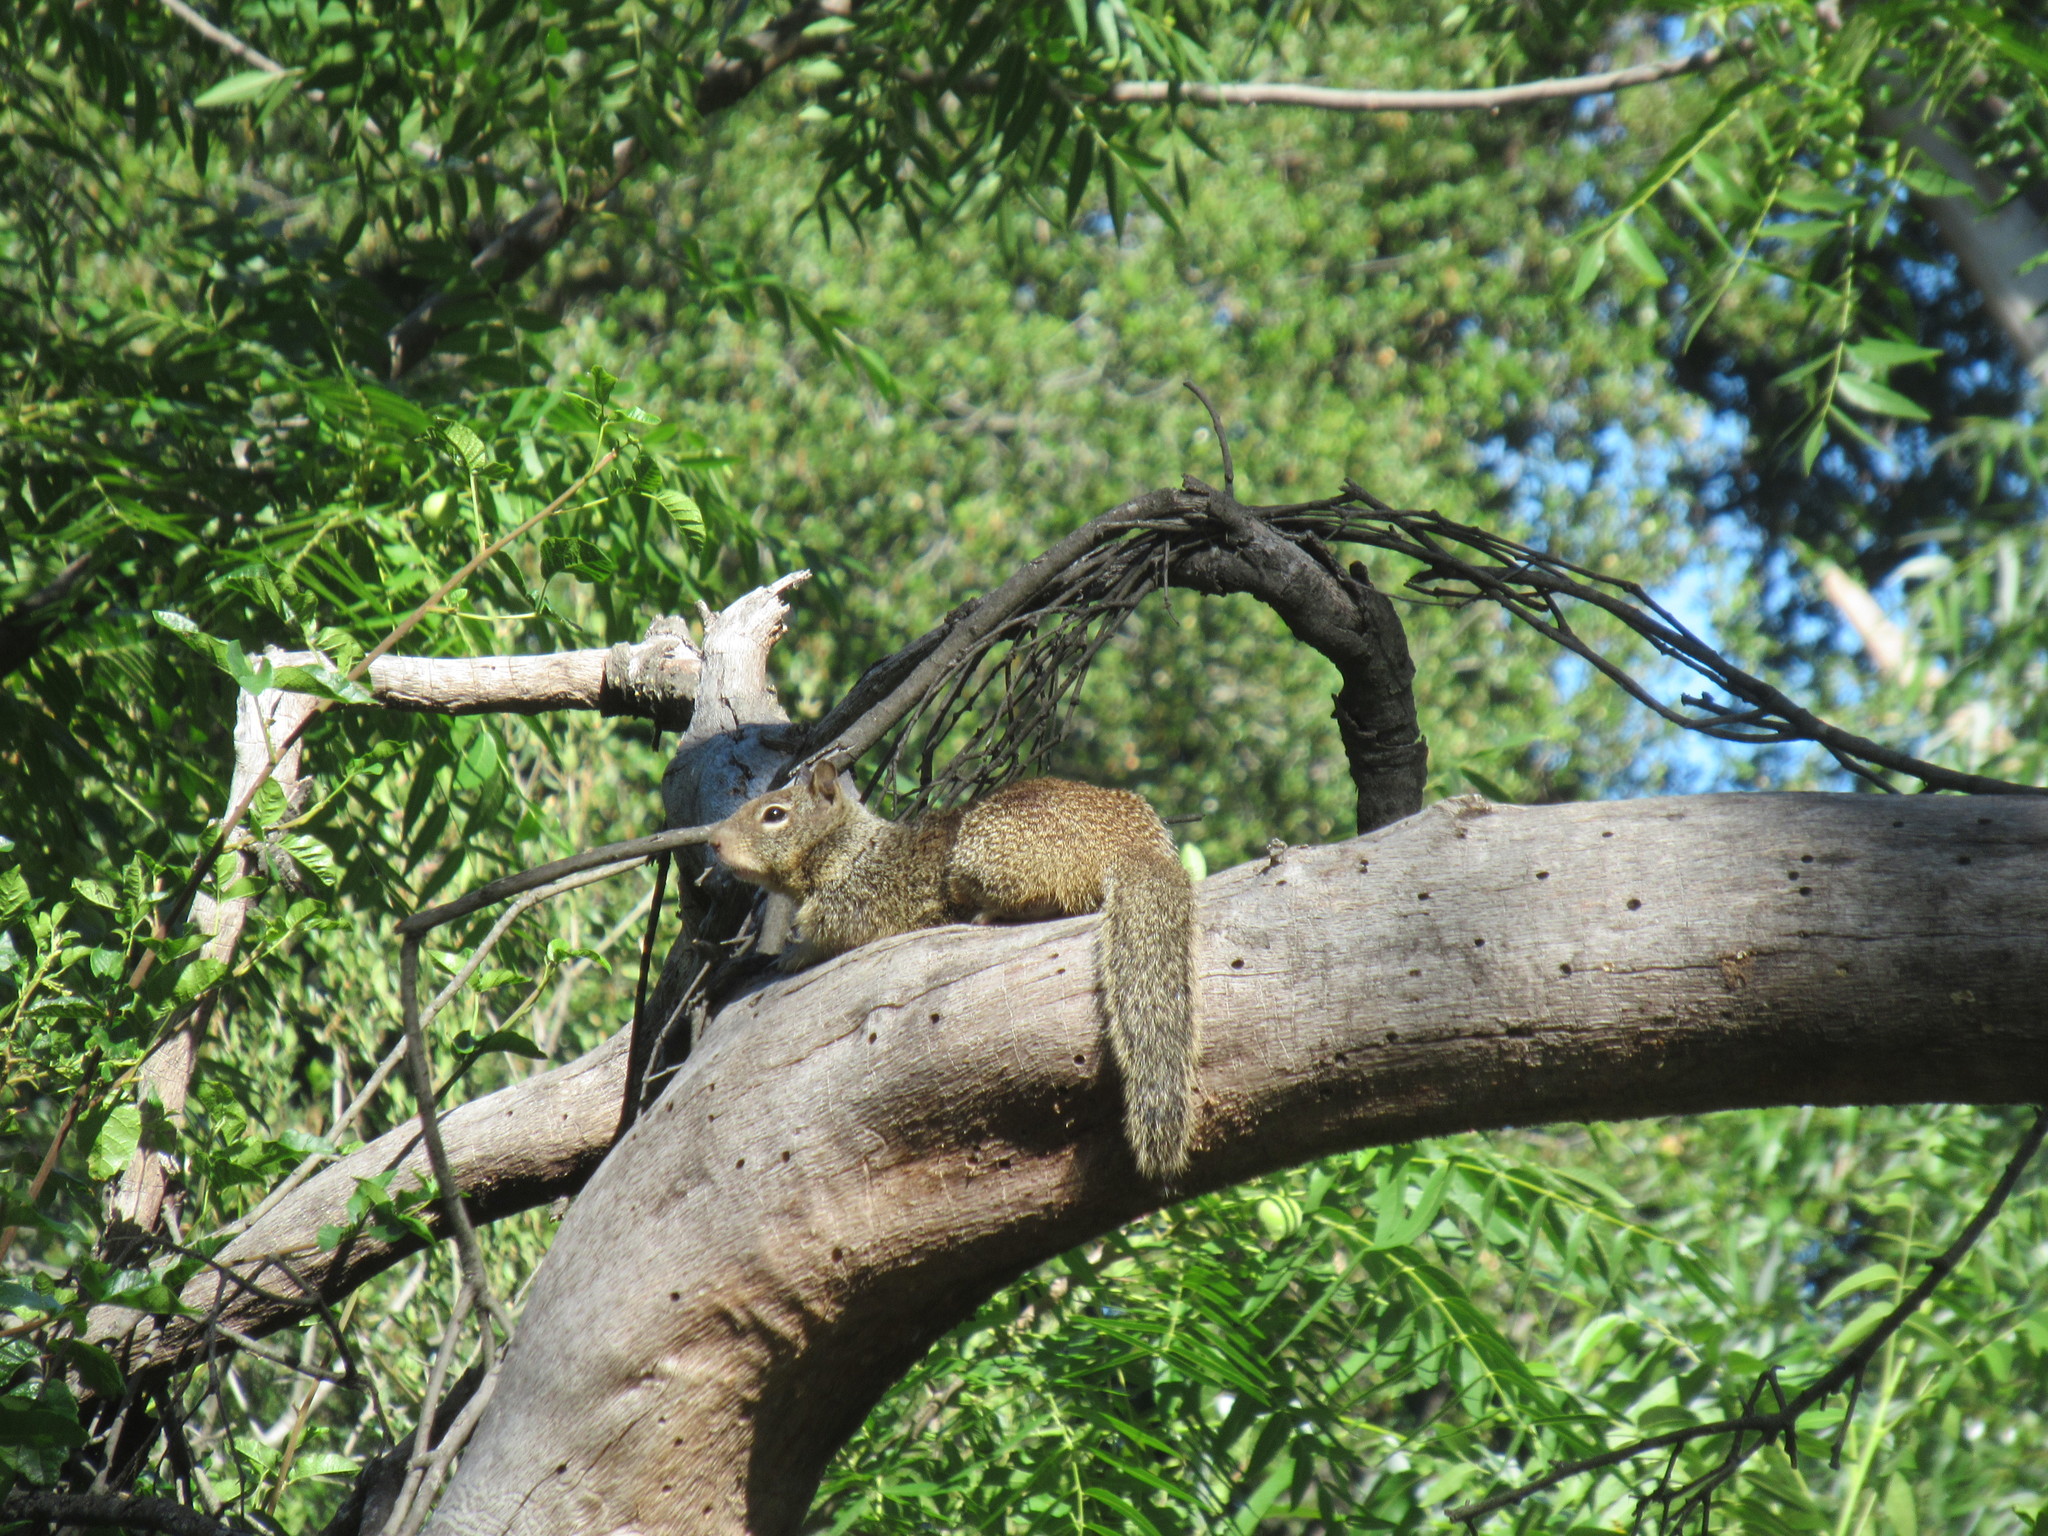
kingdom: Animalia
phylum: Chordata
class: Mammalia
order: Rodentia
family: Sciuridae
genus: Otospermophilus
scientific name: Otospermophilus beecheyi
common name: California ground squirrel
